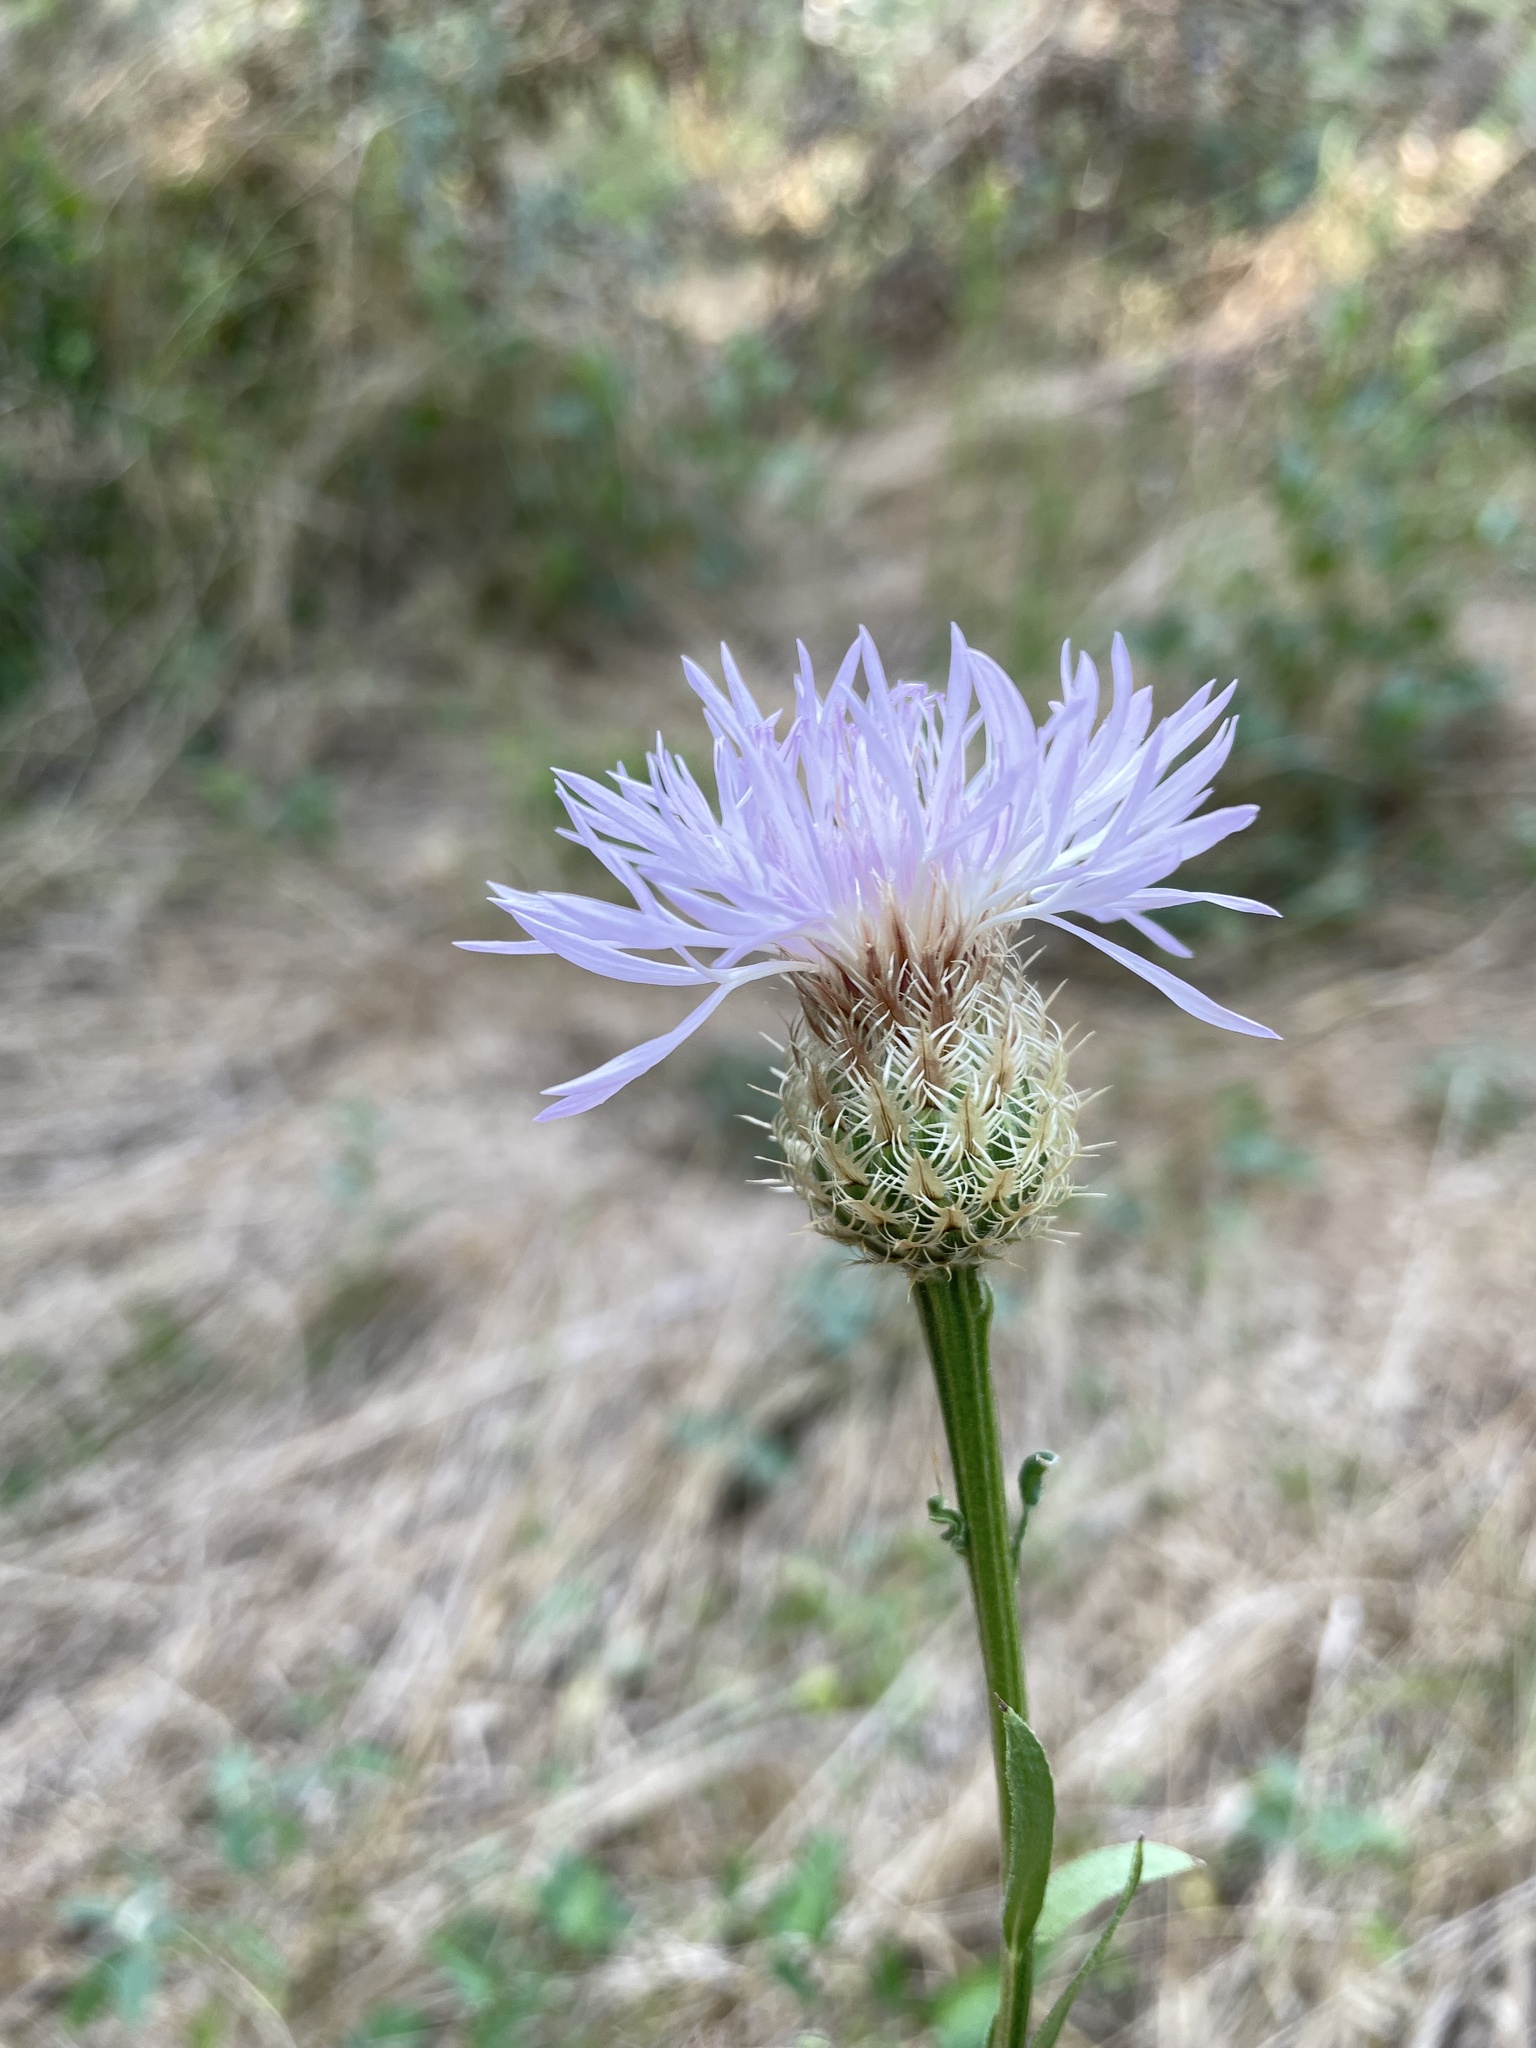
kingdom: Plantae
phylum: Tracheophyta
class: Magnoliopsida
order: Asterales
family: Asteraceae
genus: Plectocephalus
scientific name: Plectocephalus americanus
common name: American basket-flower
